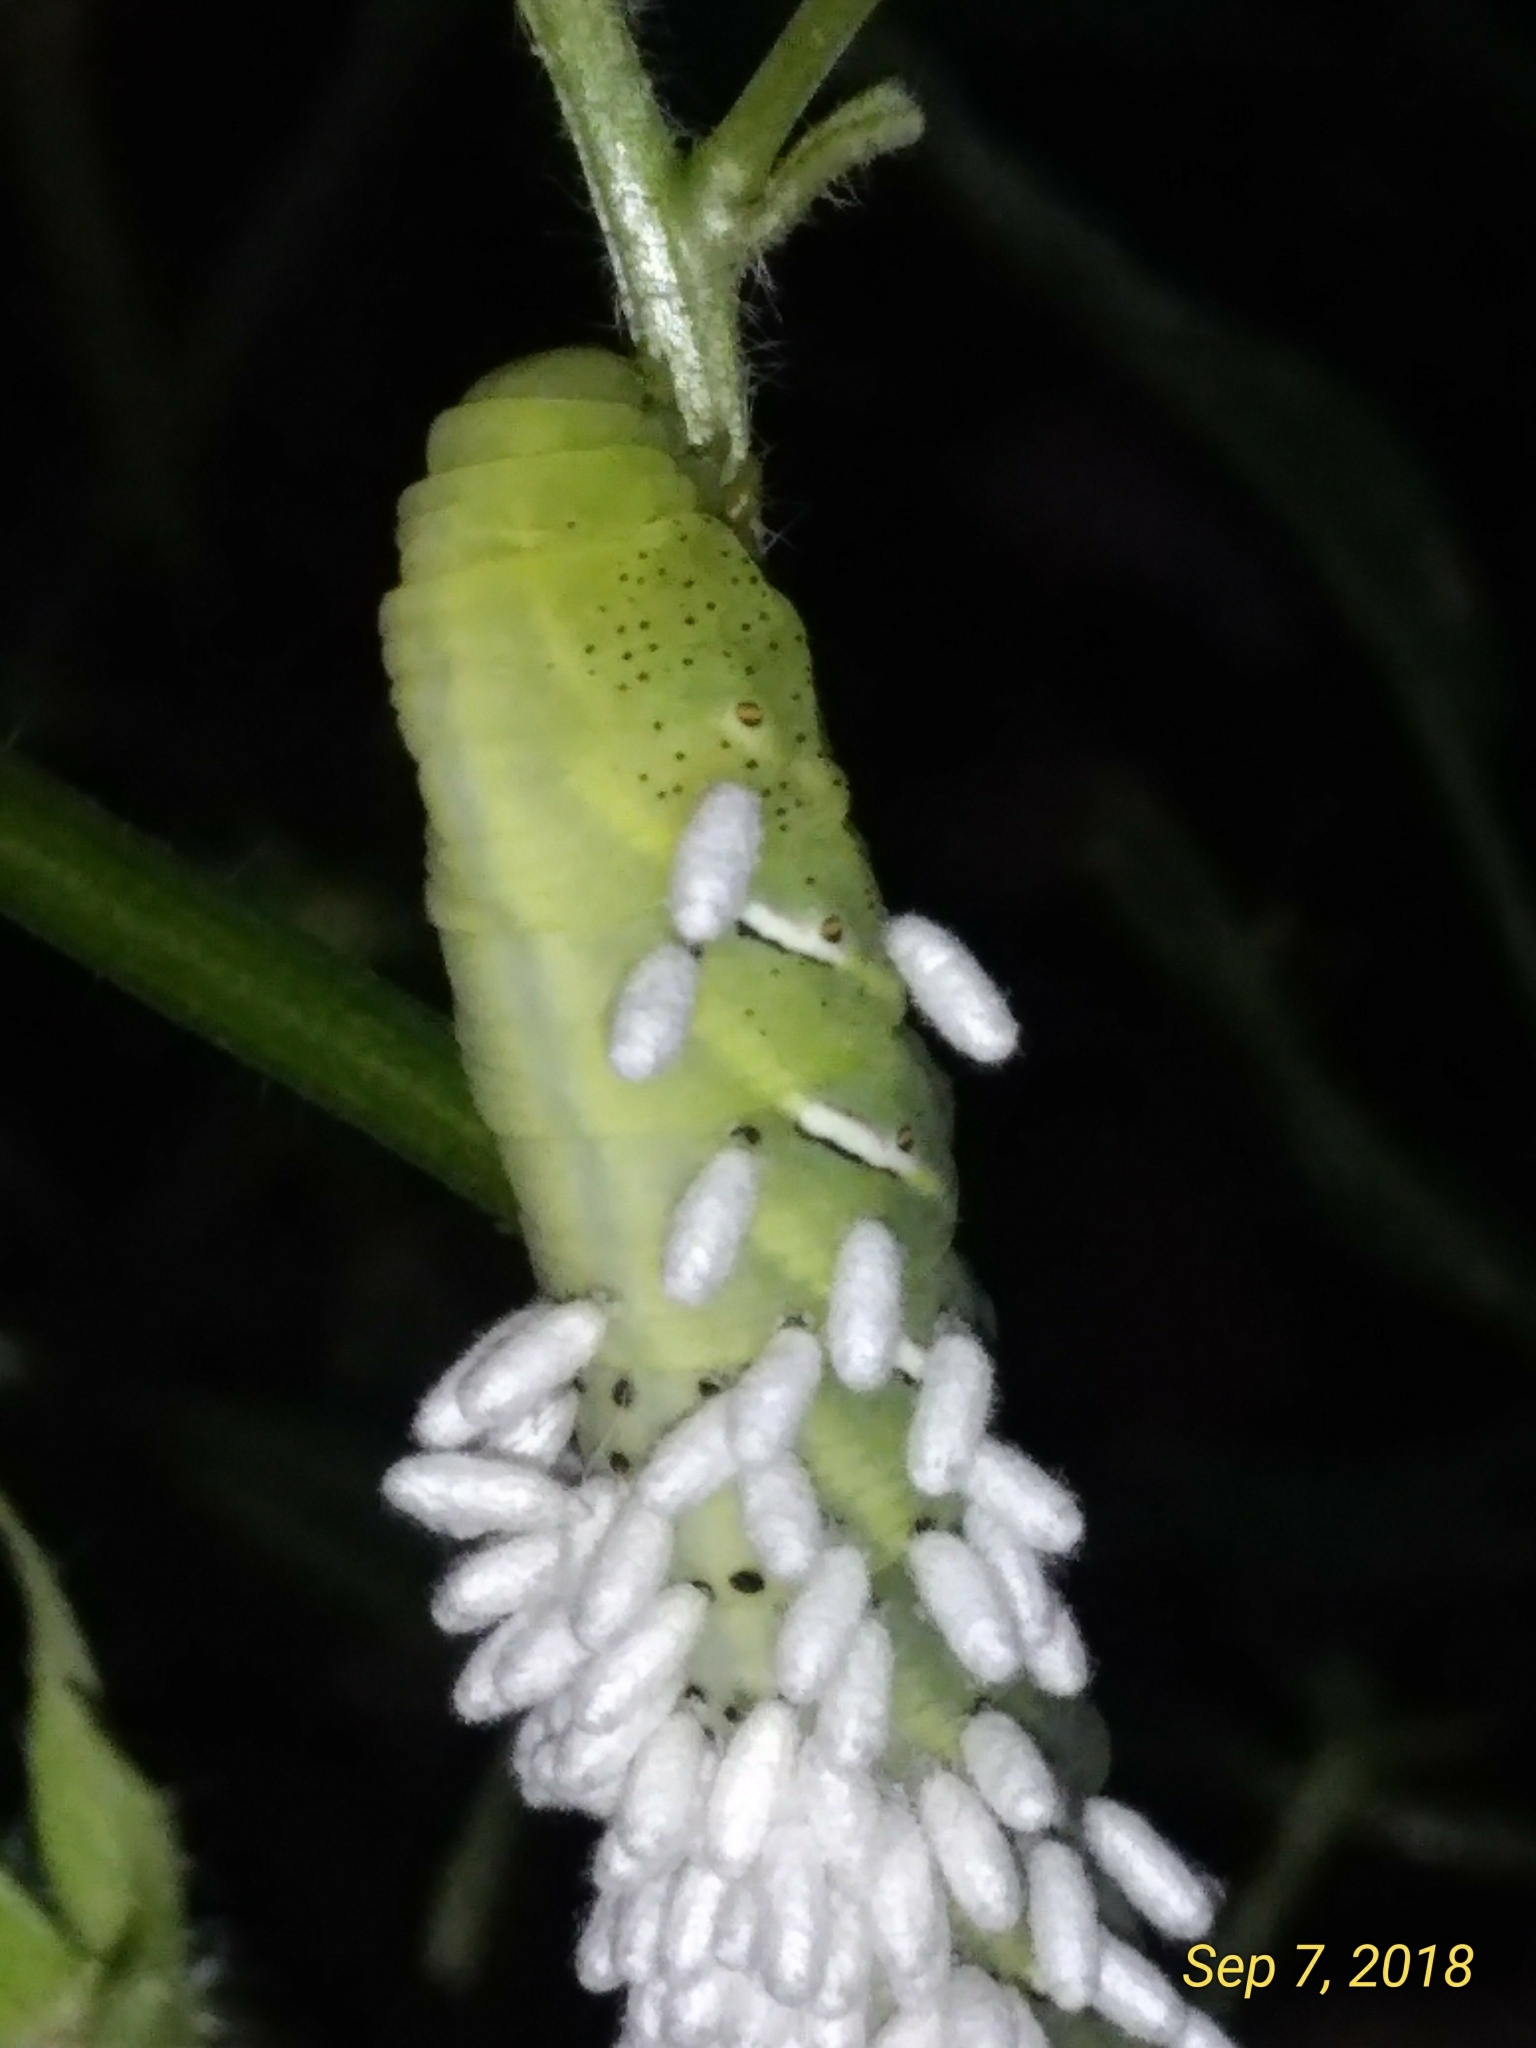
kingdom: Animalia
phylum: Arthropoda
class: Insecta
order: Hymenoptera
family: Braconidae
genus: Cotesia
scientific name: Cotesia congregata
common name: Hornworm parasitoid wasp
